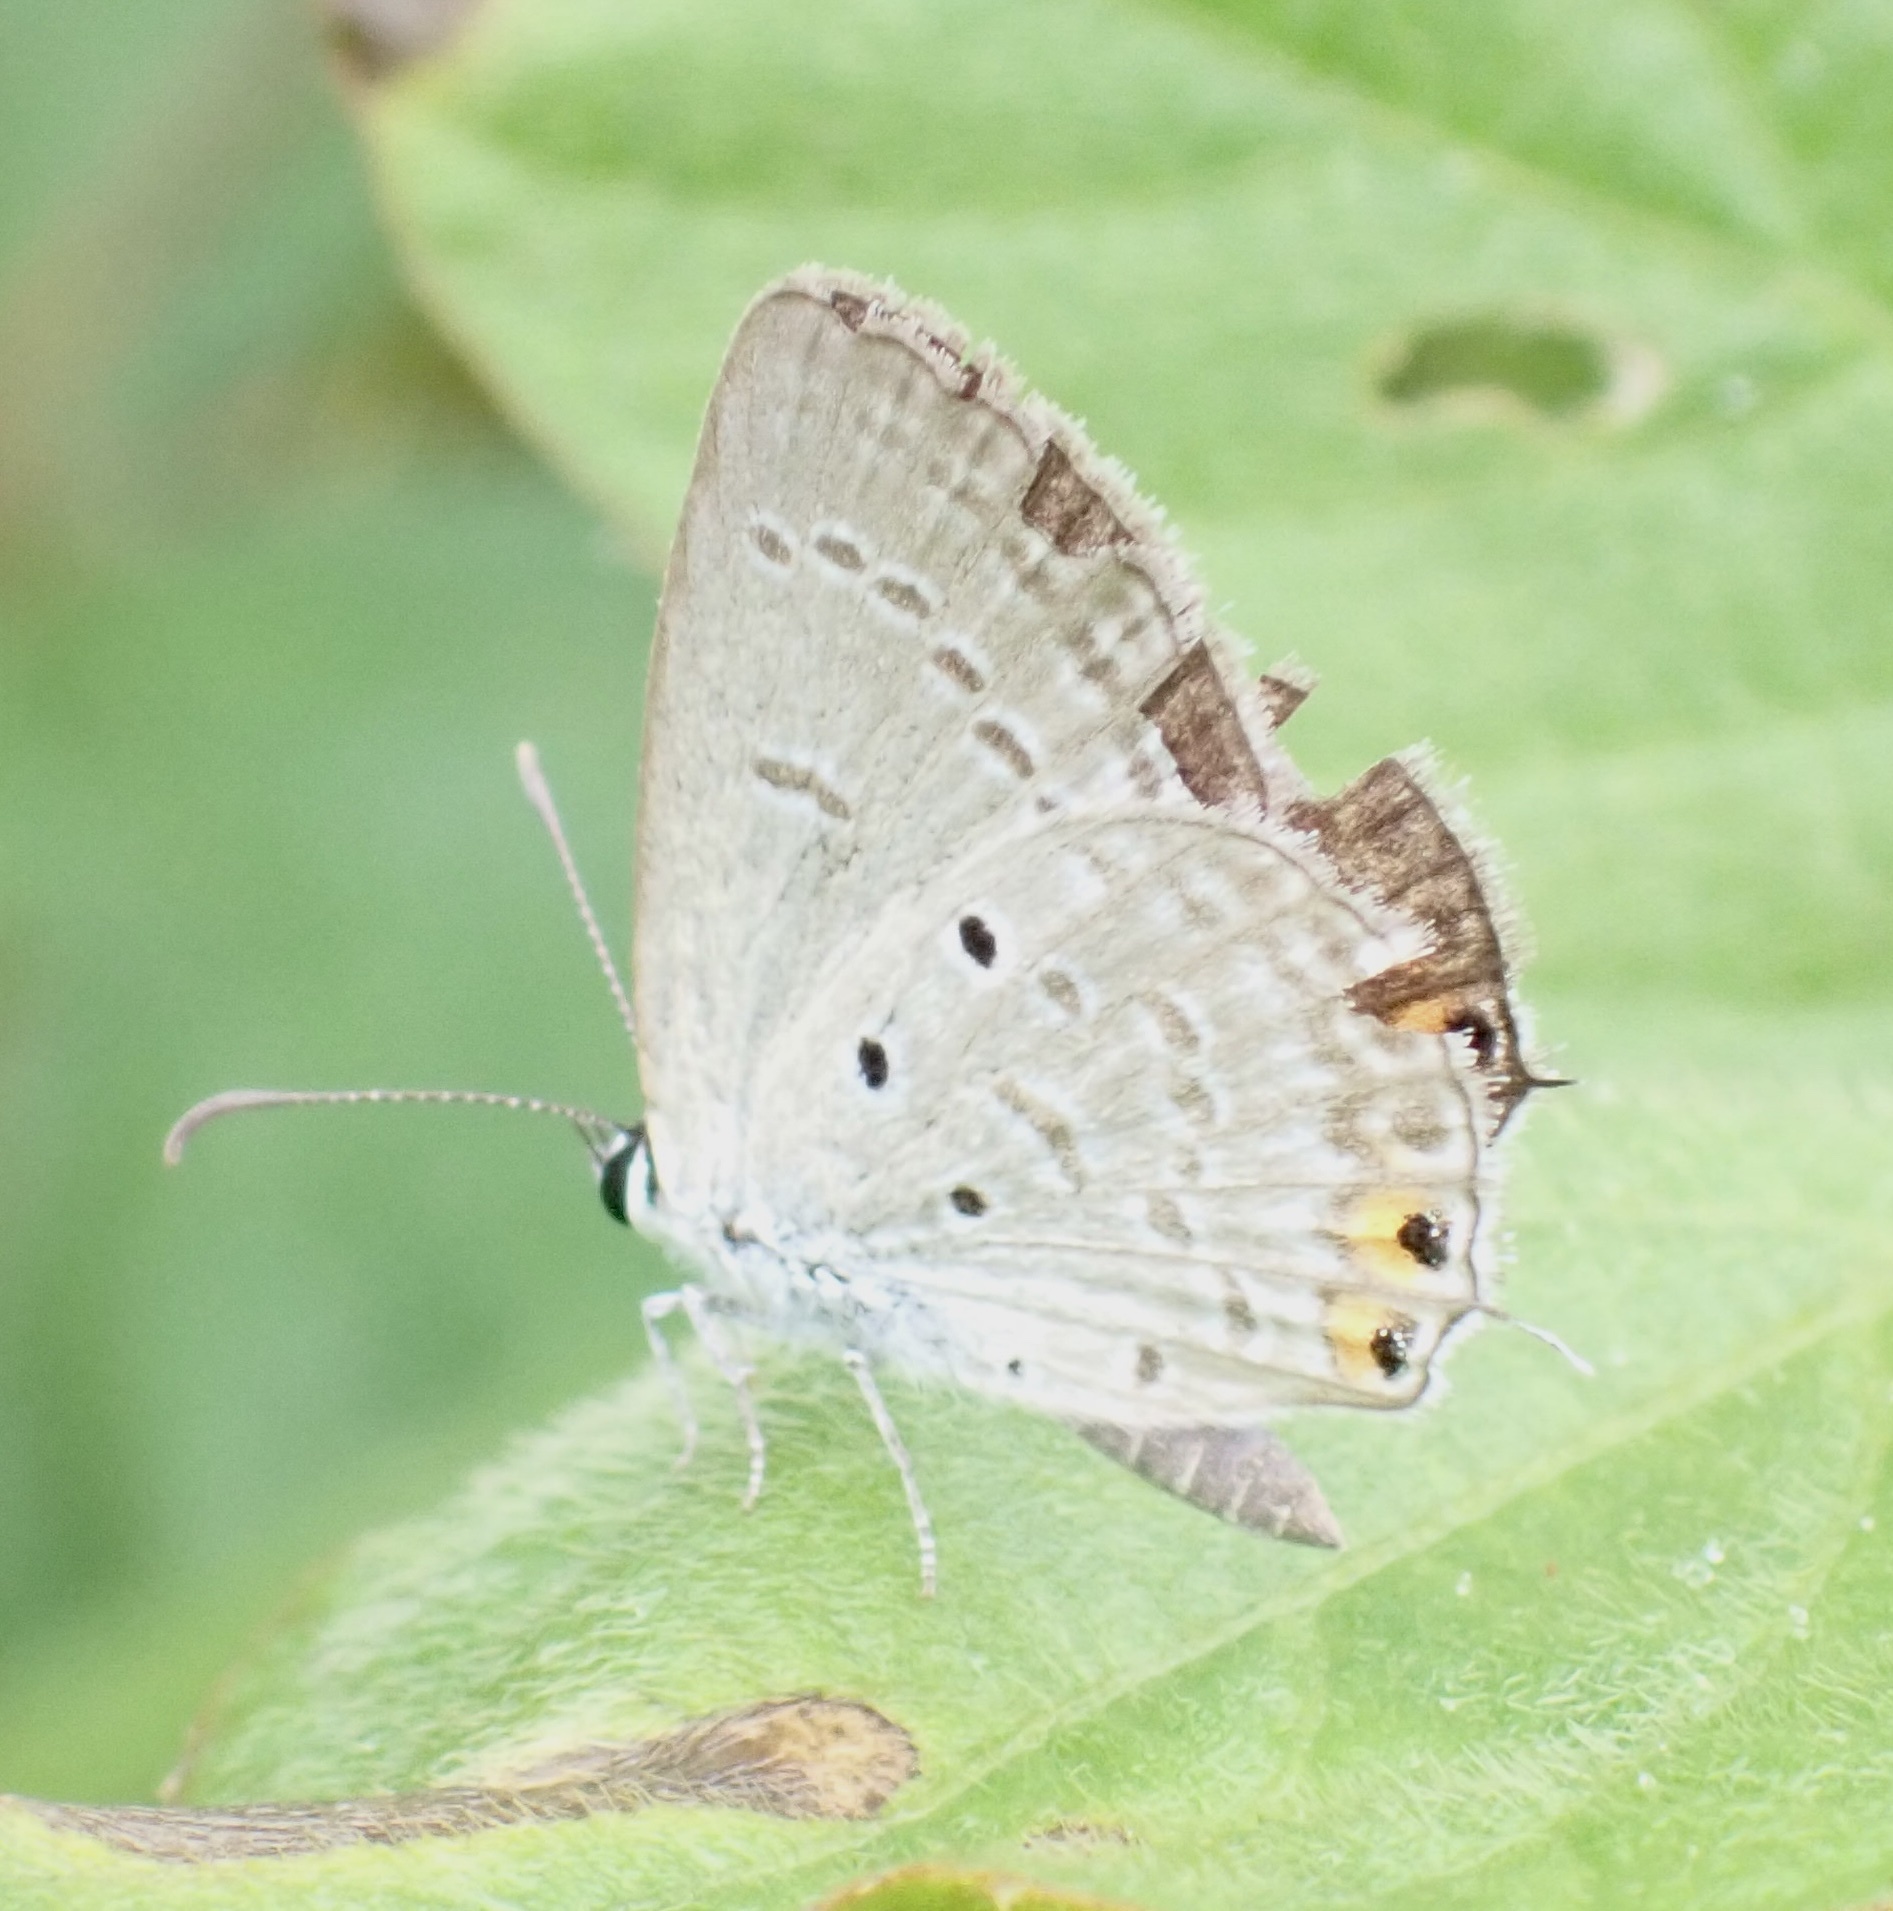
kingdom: Animalia
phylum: Arthropoda
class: Insecta
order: Lepidoptera
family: Lycaenidae
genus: Euchrysops
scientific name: Euchrysops cnejus
